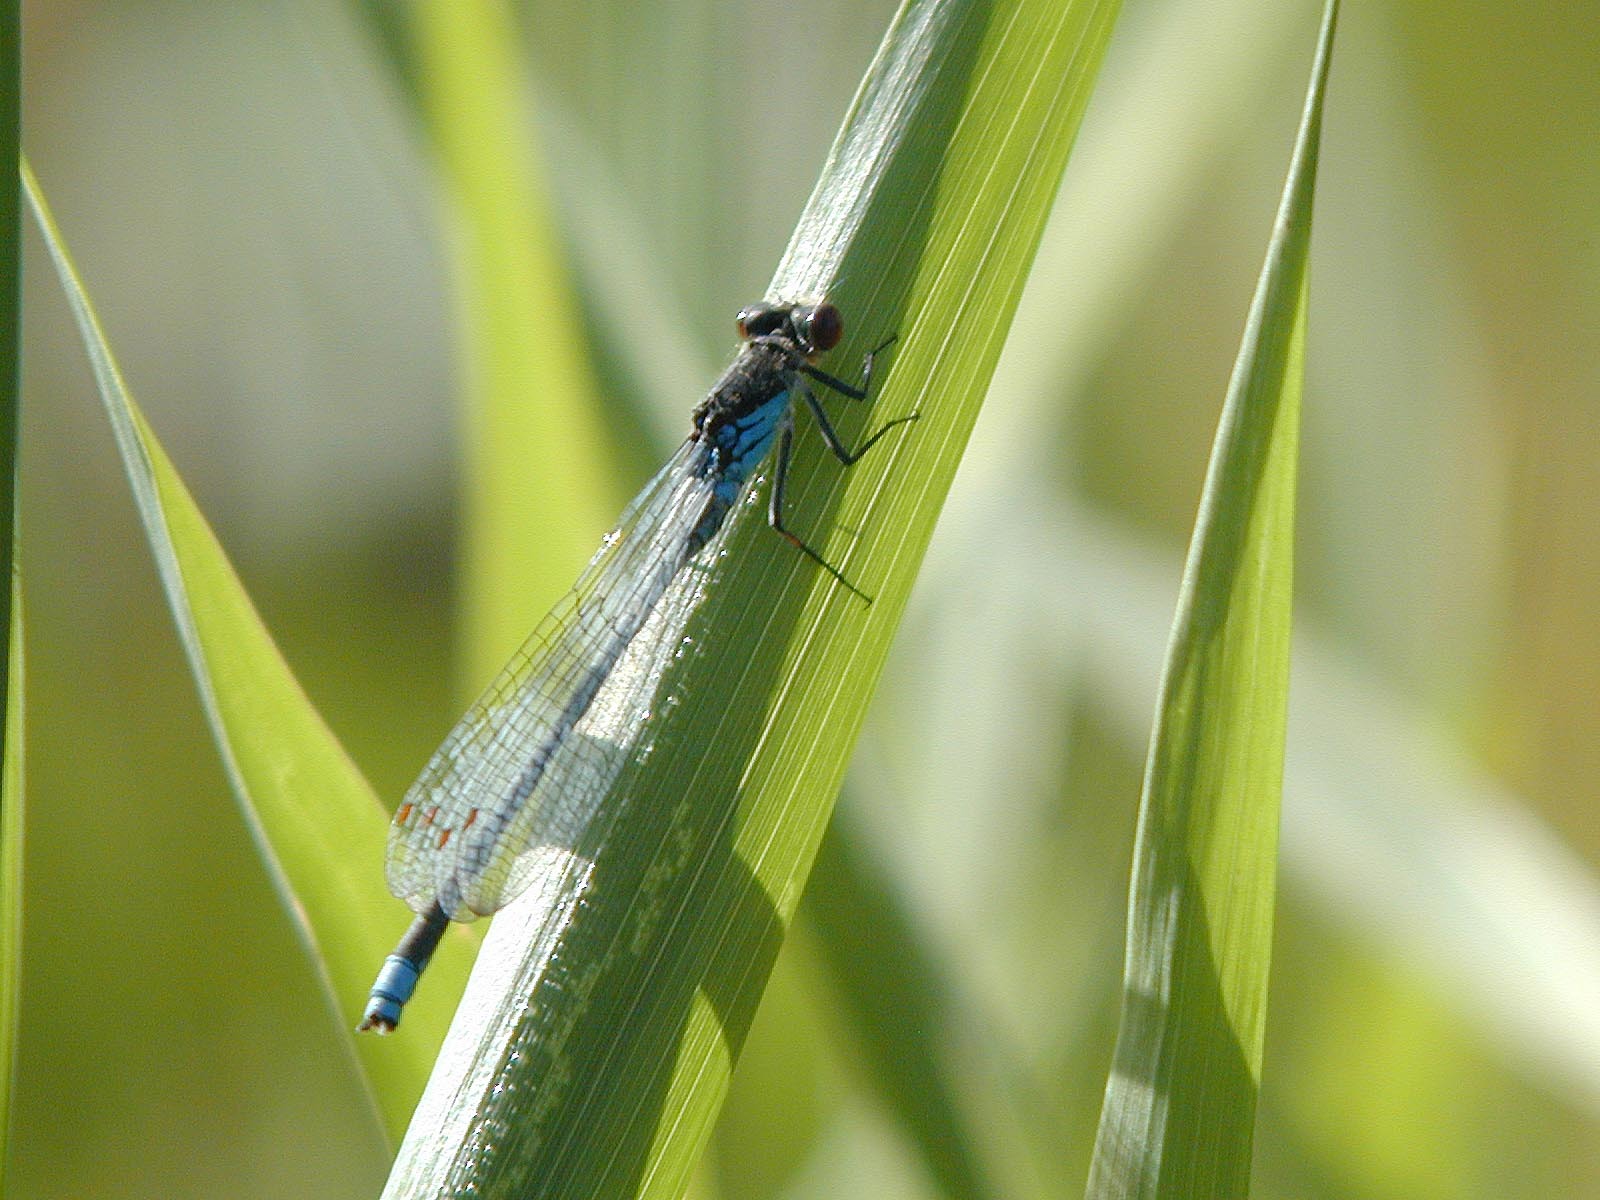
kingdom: Animalia
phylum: Arthropoda
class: Insecta
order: Odonata
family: Coenagrionidae
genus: Erythromma
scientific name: Erythromma najas
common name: Red-eyed damselfly
